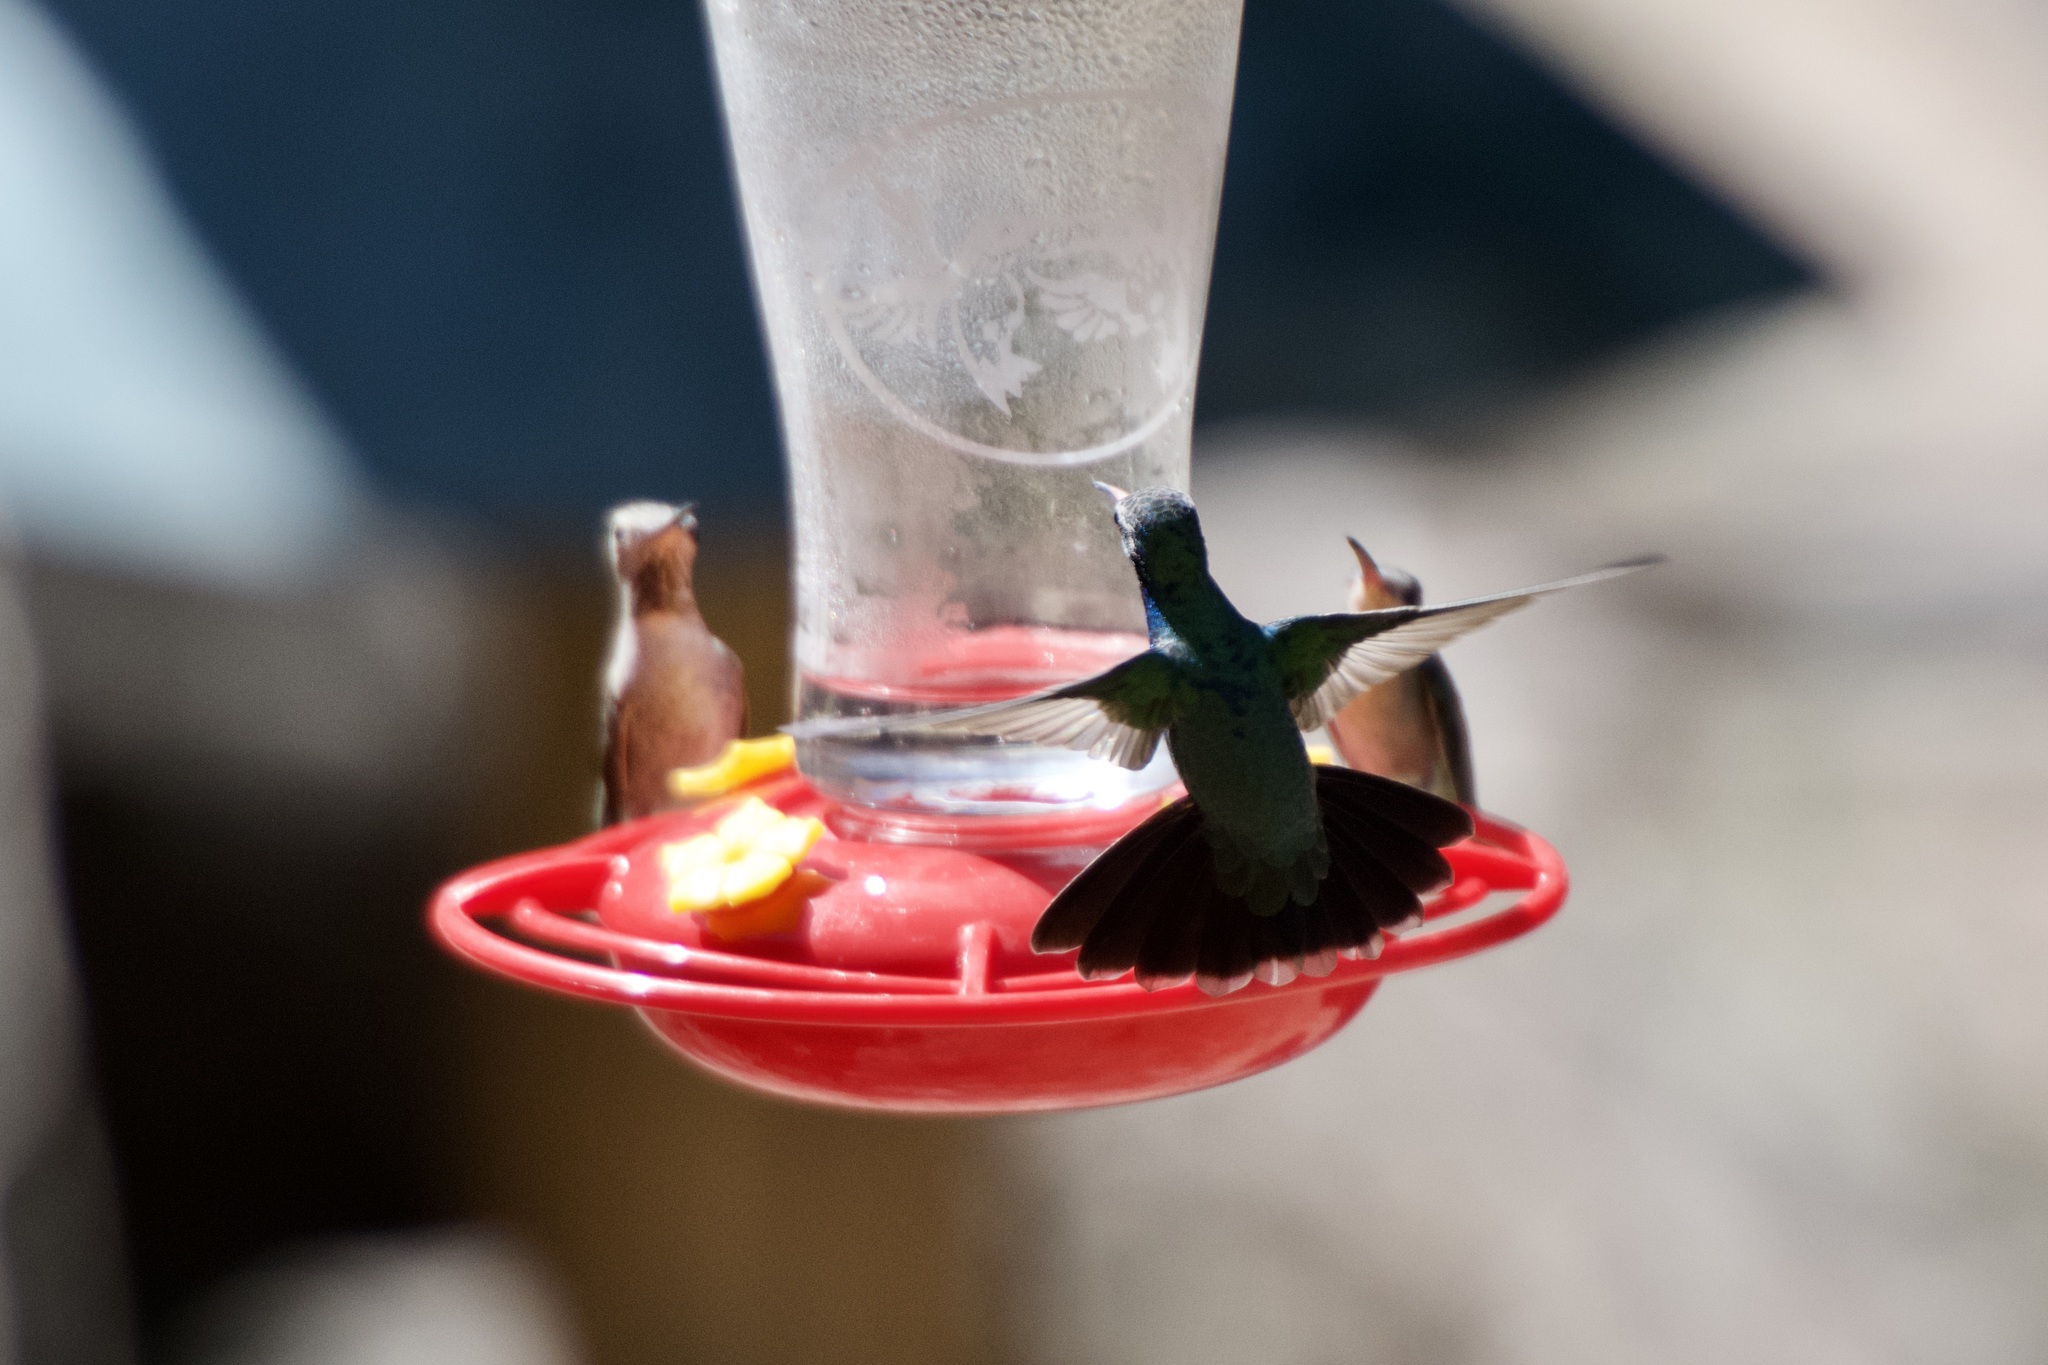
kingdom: Animalia
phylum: Chordata
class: Aves
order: Apodiformes
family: Trochilidae
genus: Cynanthus
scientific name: Cynanthus latirostris
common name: Broad-billed hummingbird
